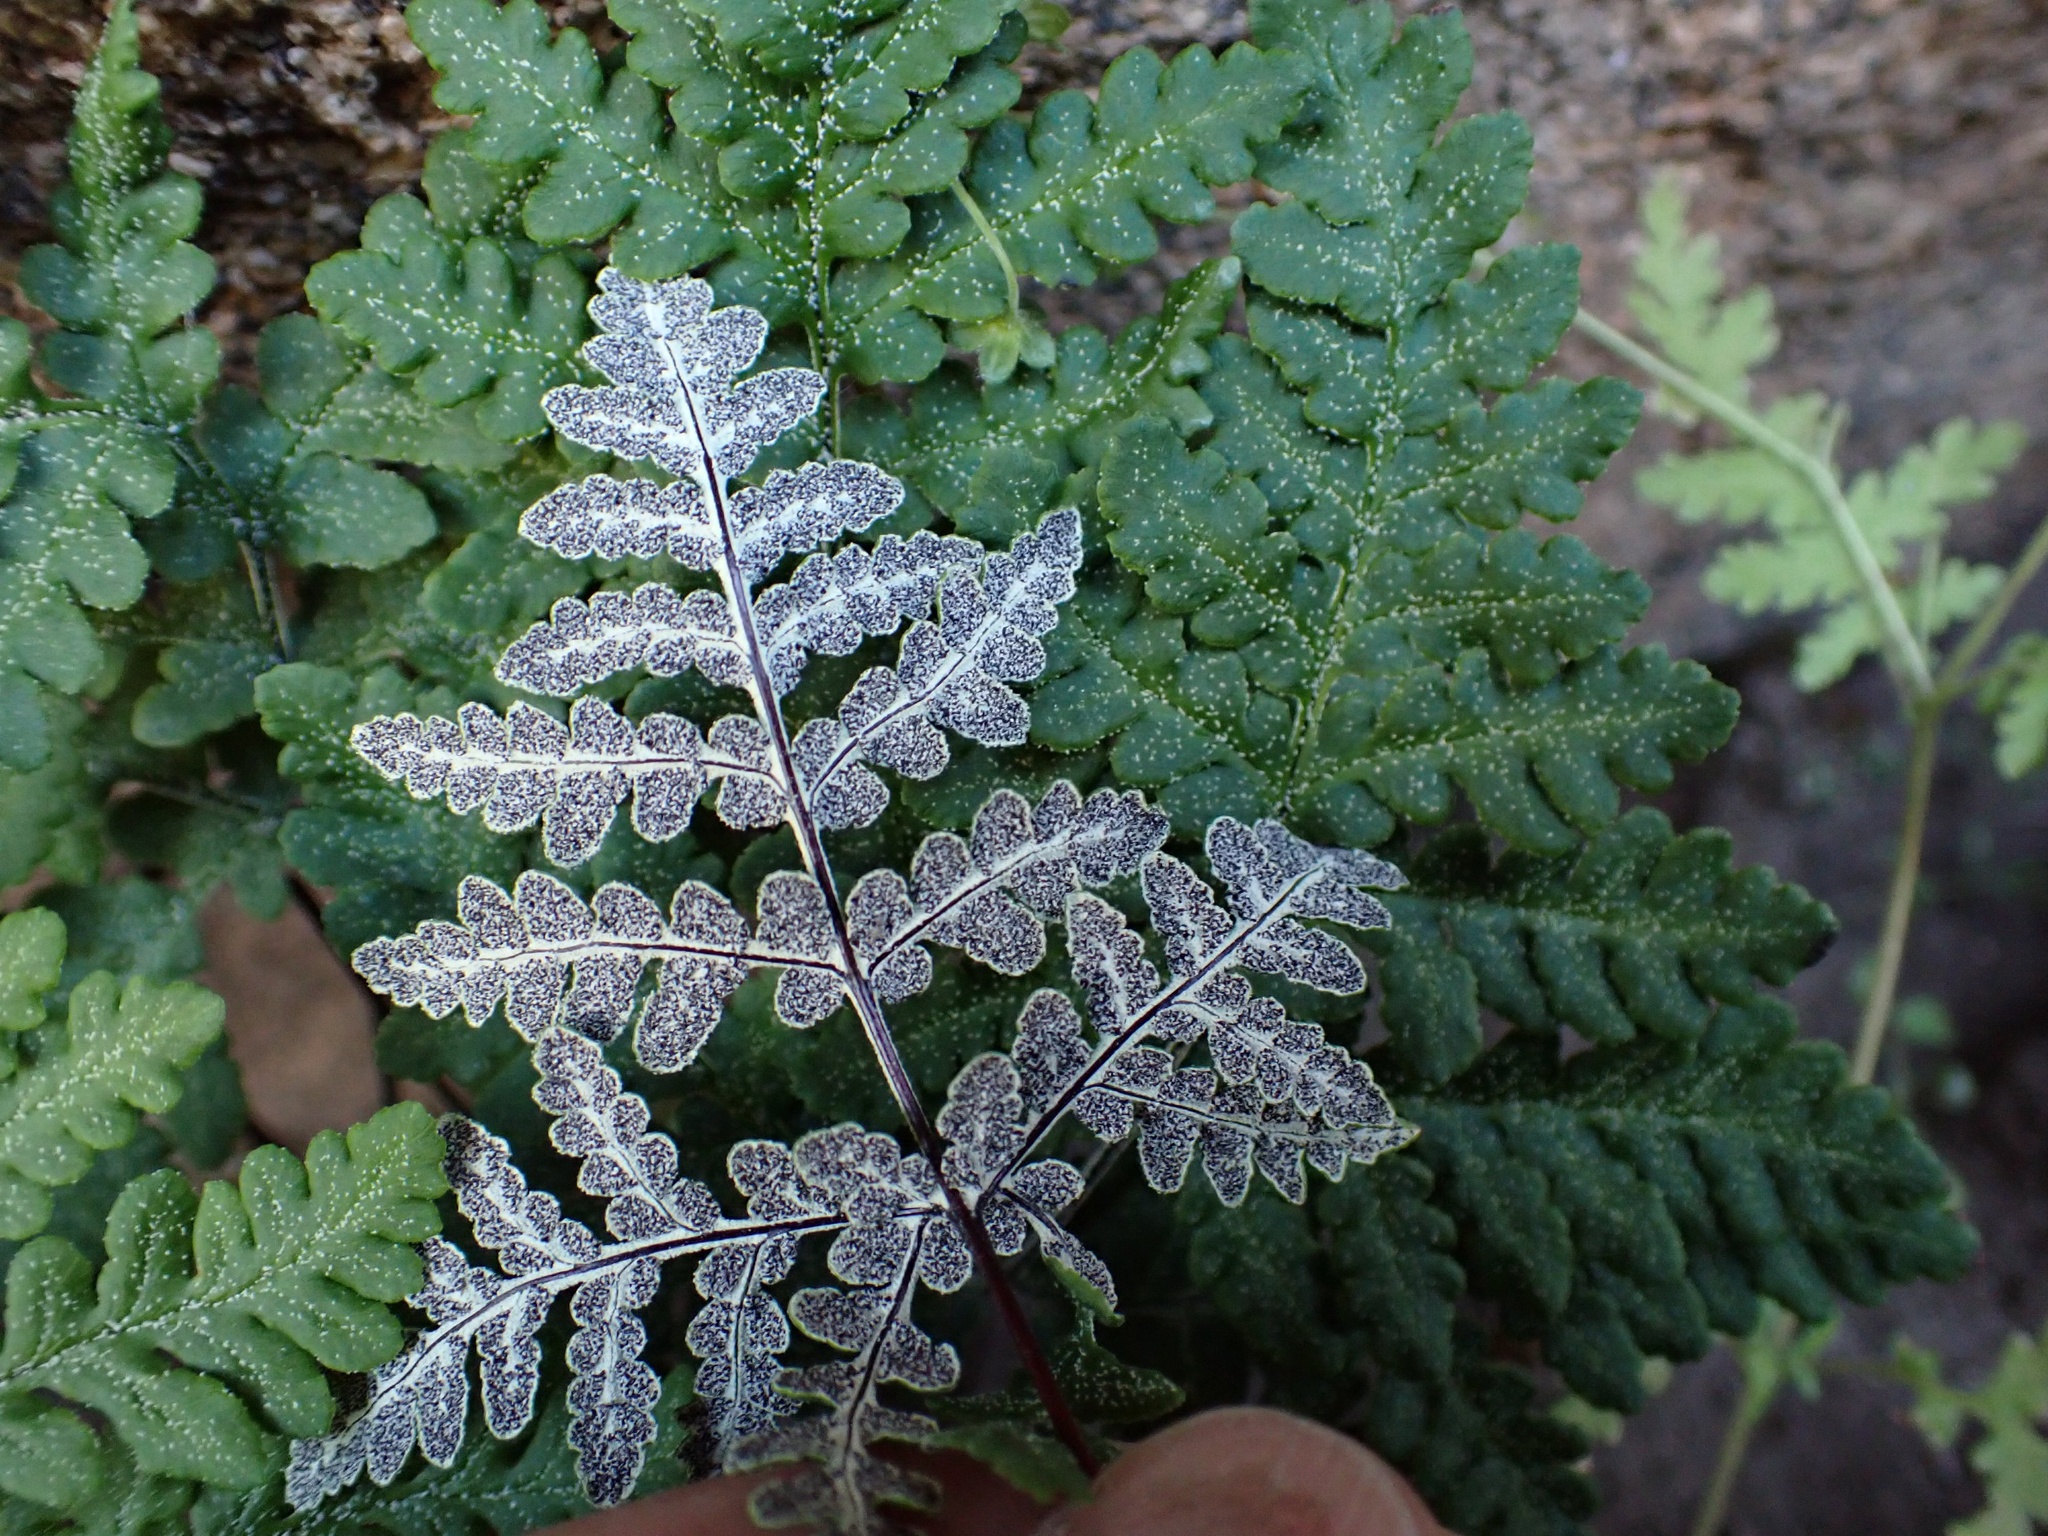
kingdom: Plantae
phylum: Tracheophyta
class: Polypodiopsida
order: Polypodiales
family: Pteridaceae
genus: Pentagramma
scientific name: Pentagramma rebmanii
